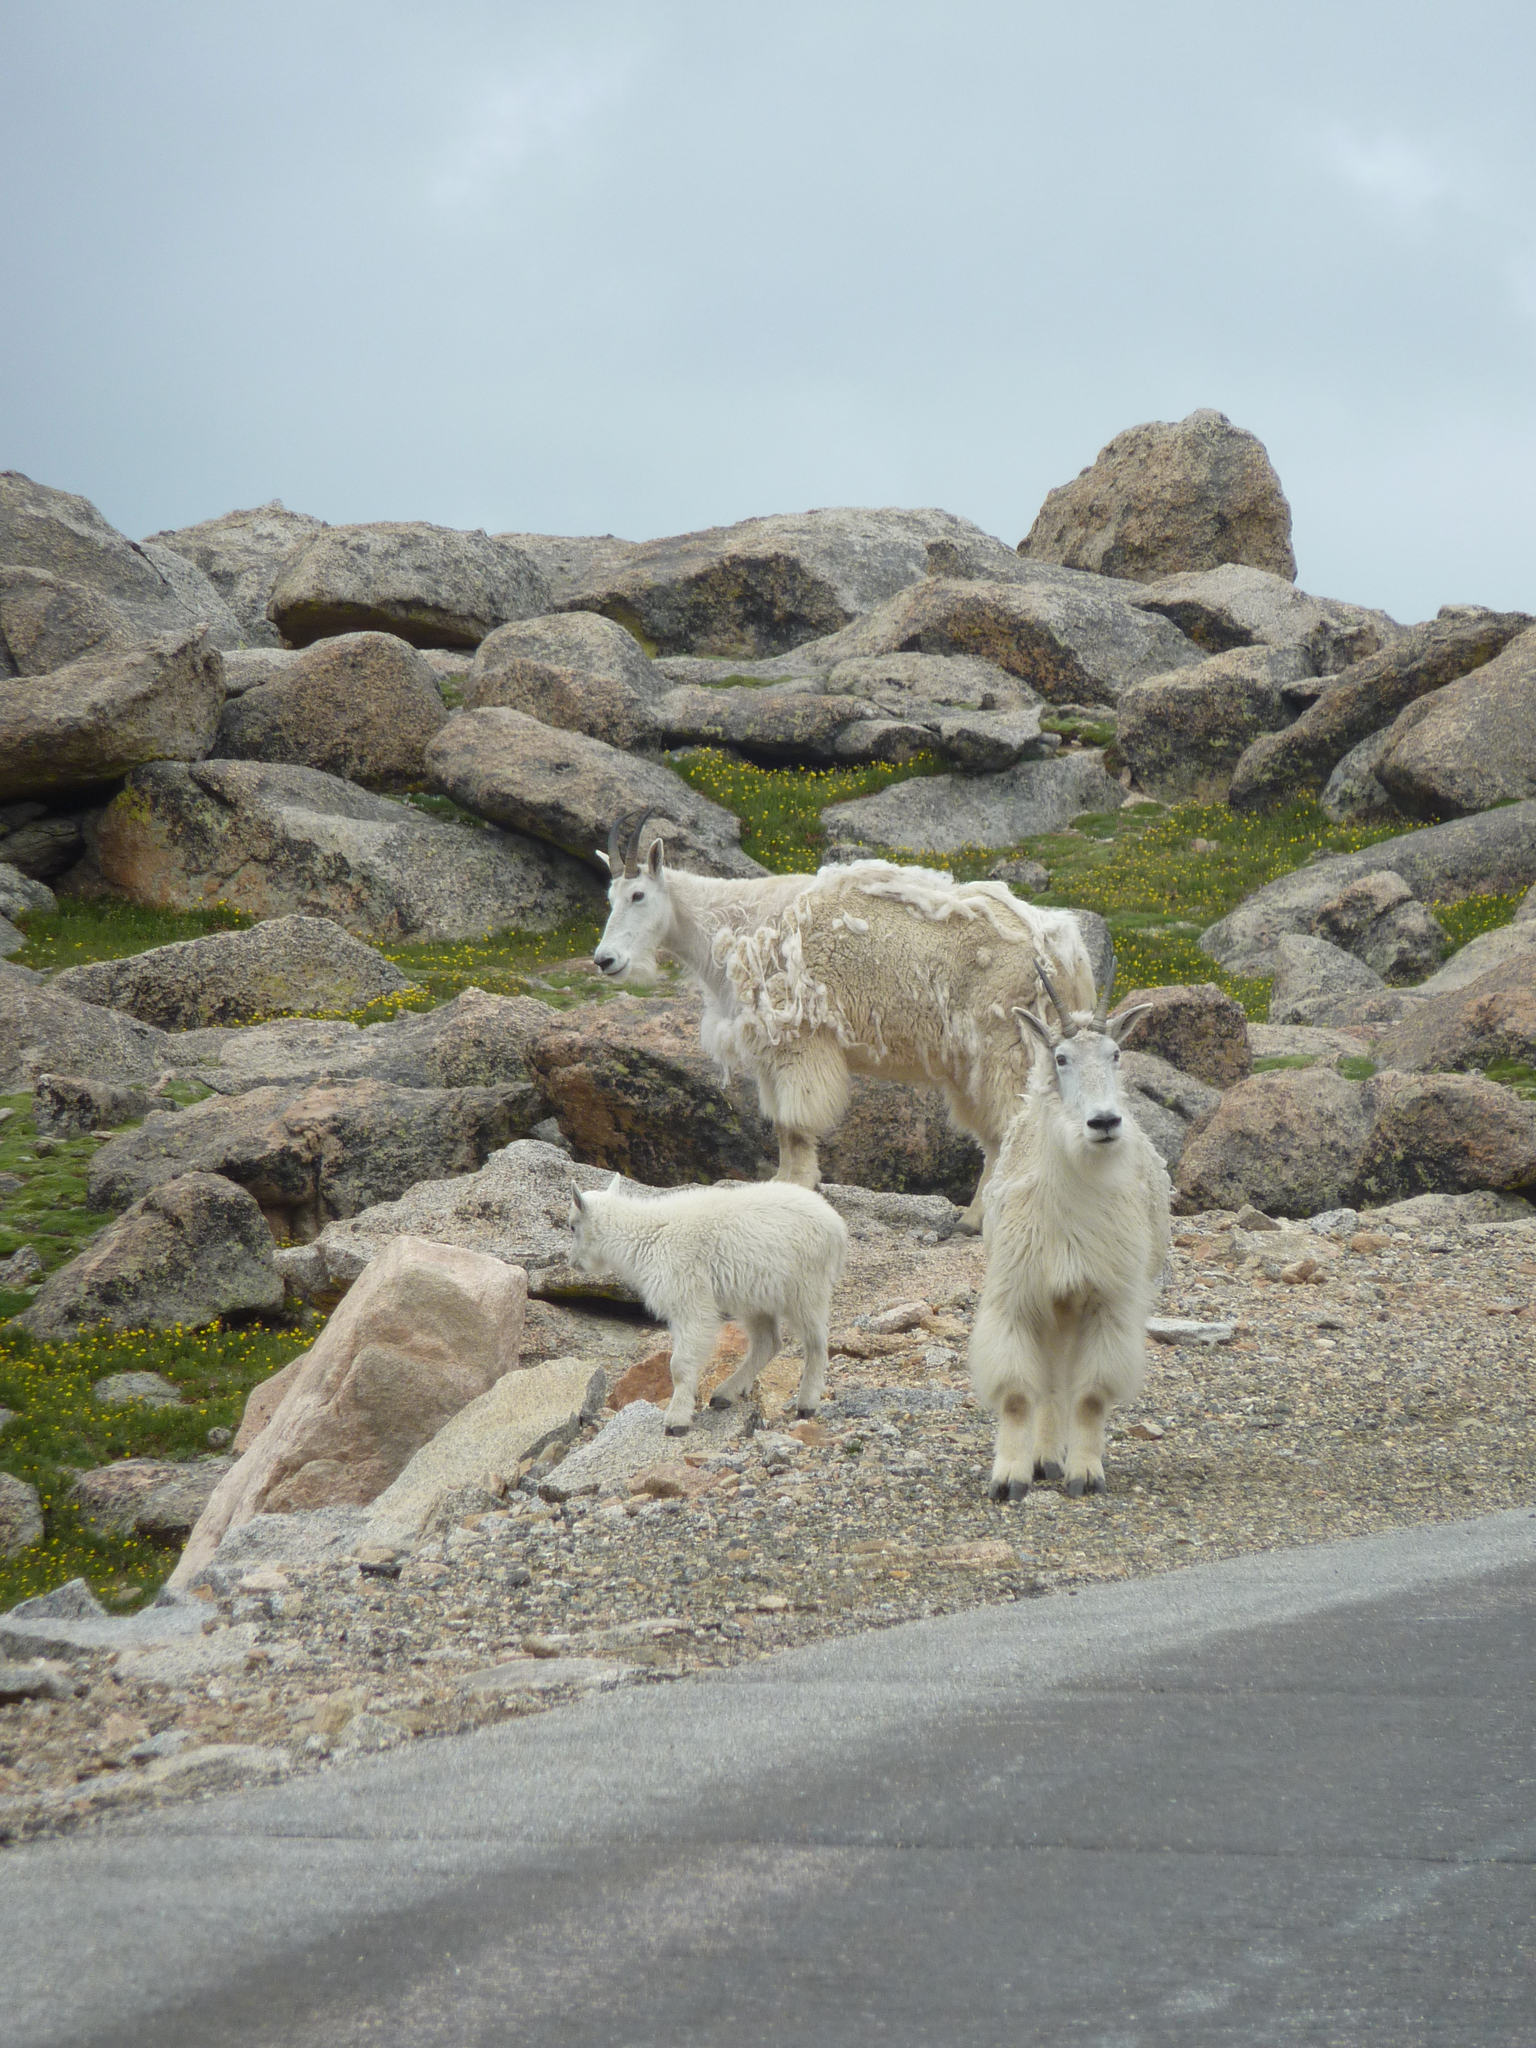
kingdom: Animalia
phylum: Chordata
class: Mammalia
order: Artiodactyla
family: Bovidae
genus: Oreamnos
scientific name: Oreamnos americanus
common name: Mountain goat
